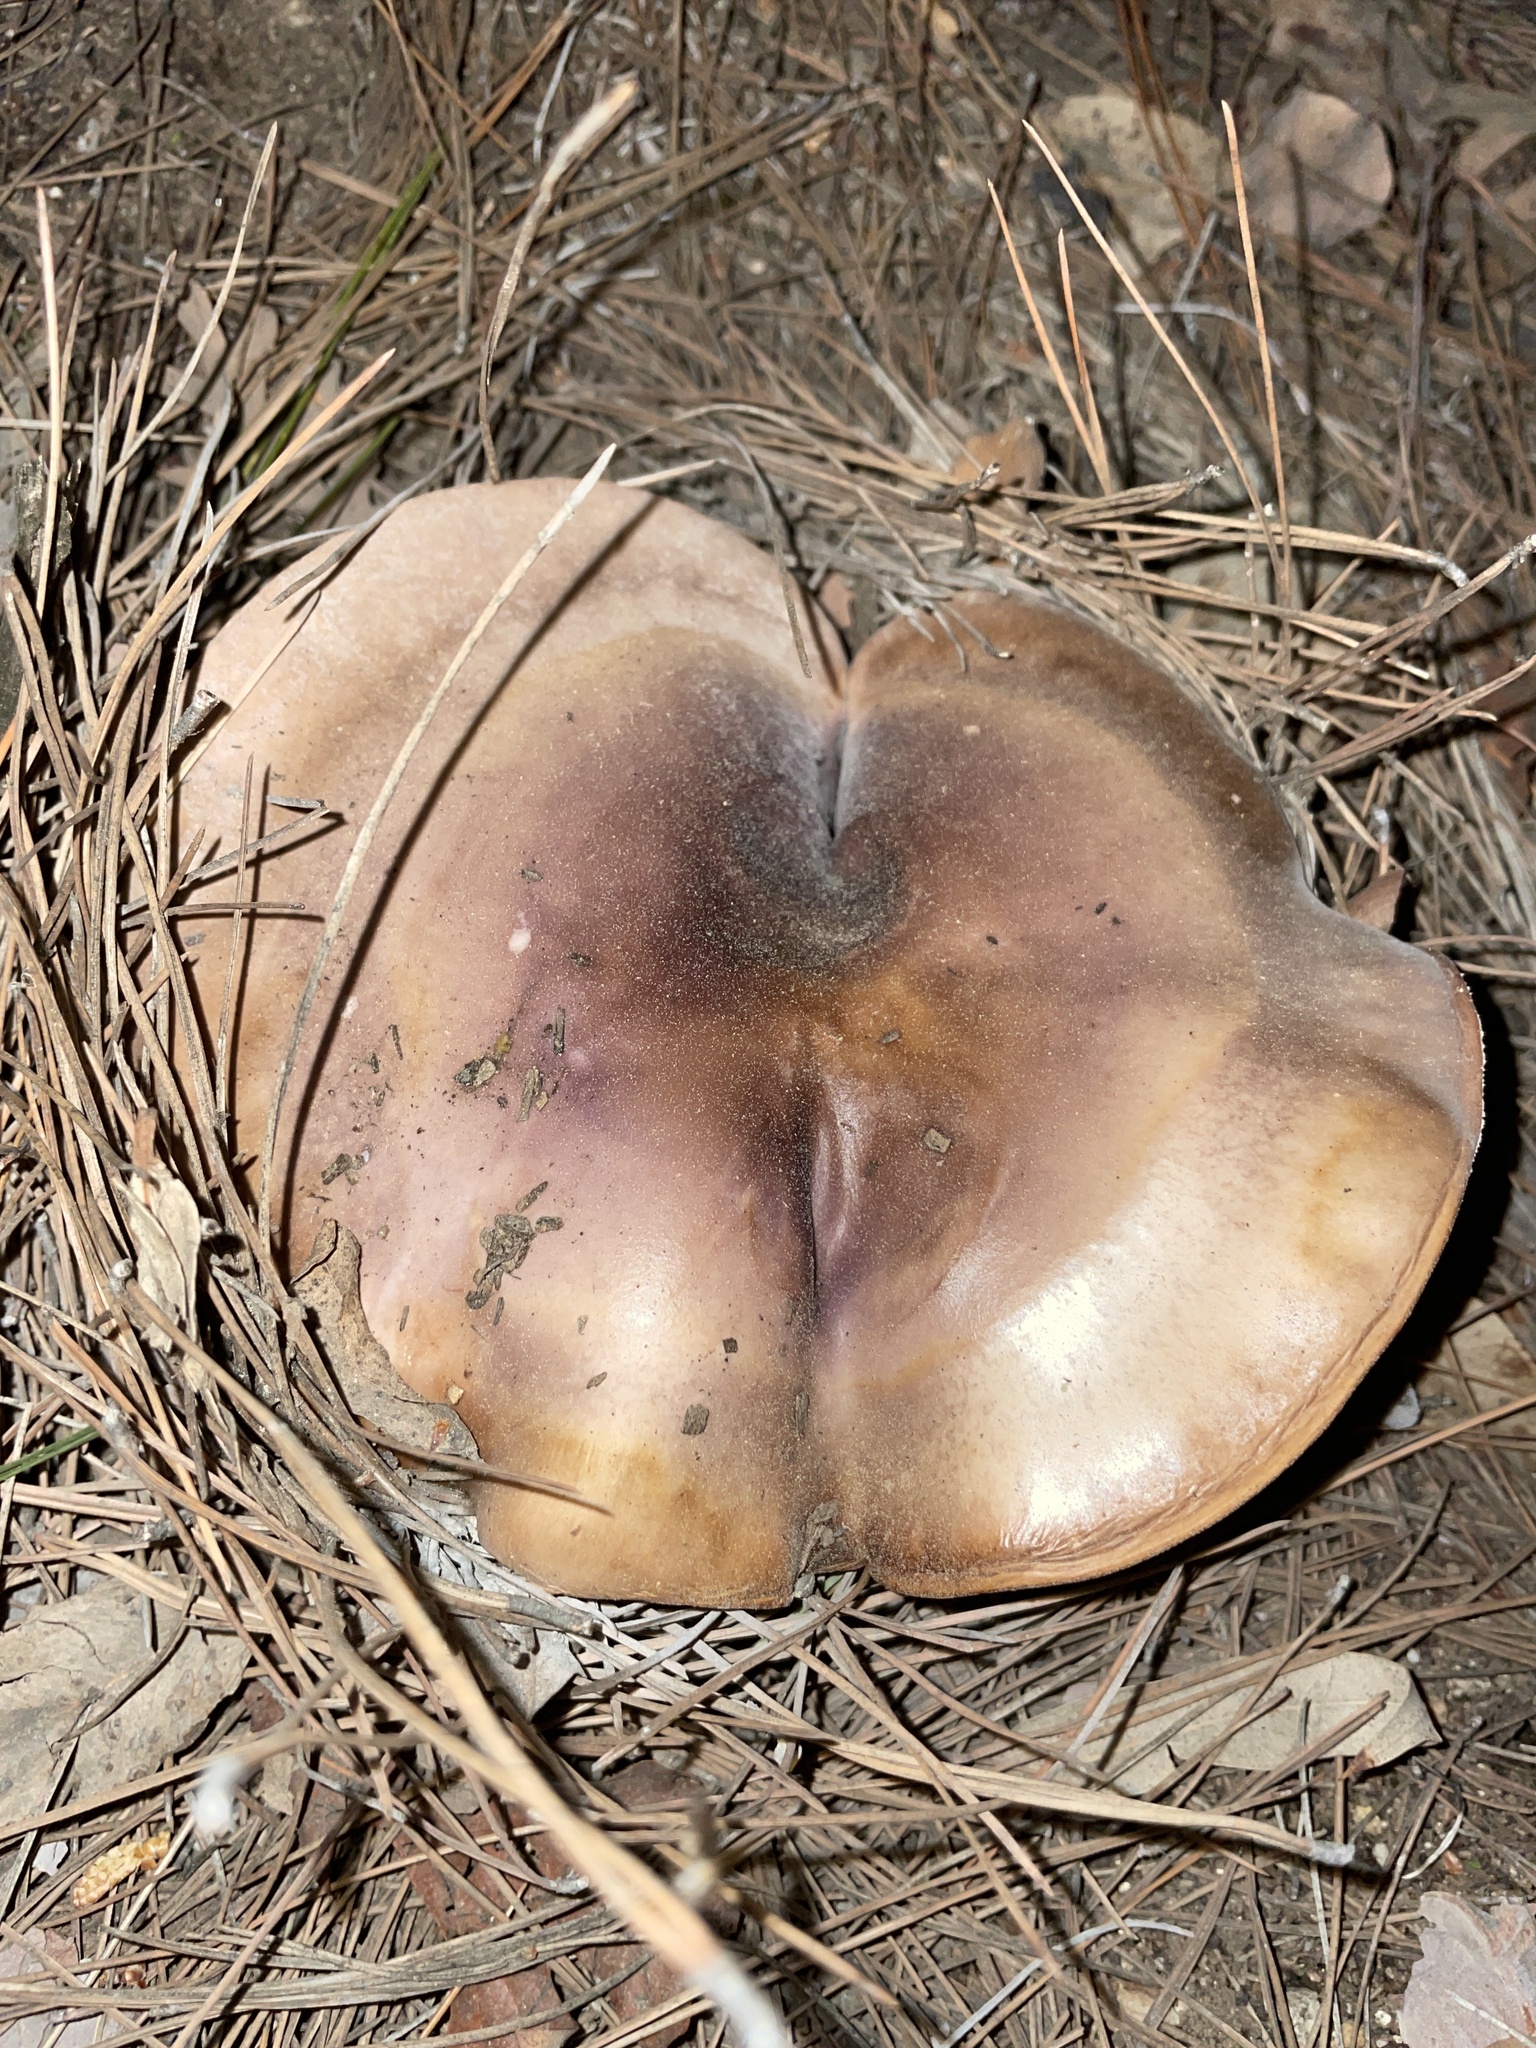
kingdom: Fungi
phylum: Basidiomycota
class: Agaricomycetes
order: Agaricales
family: Tricholomataceae
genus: Collybia
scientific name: Collybia
